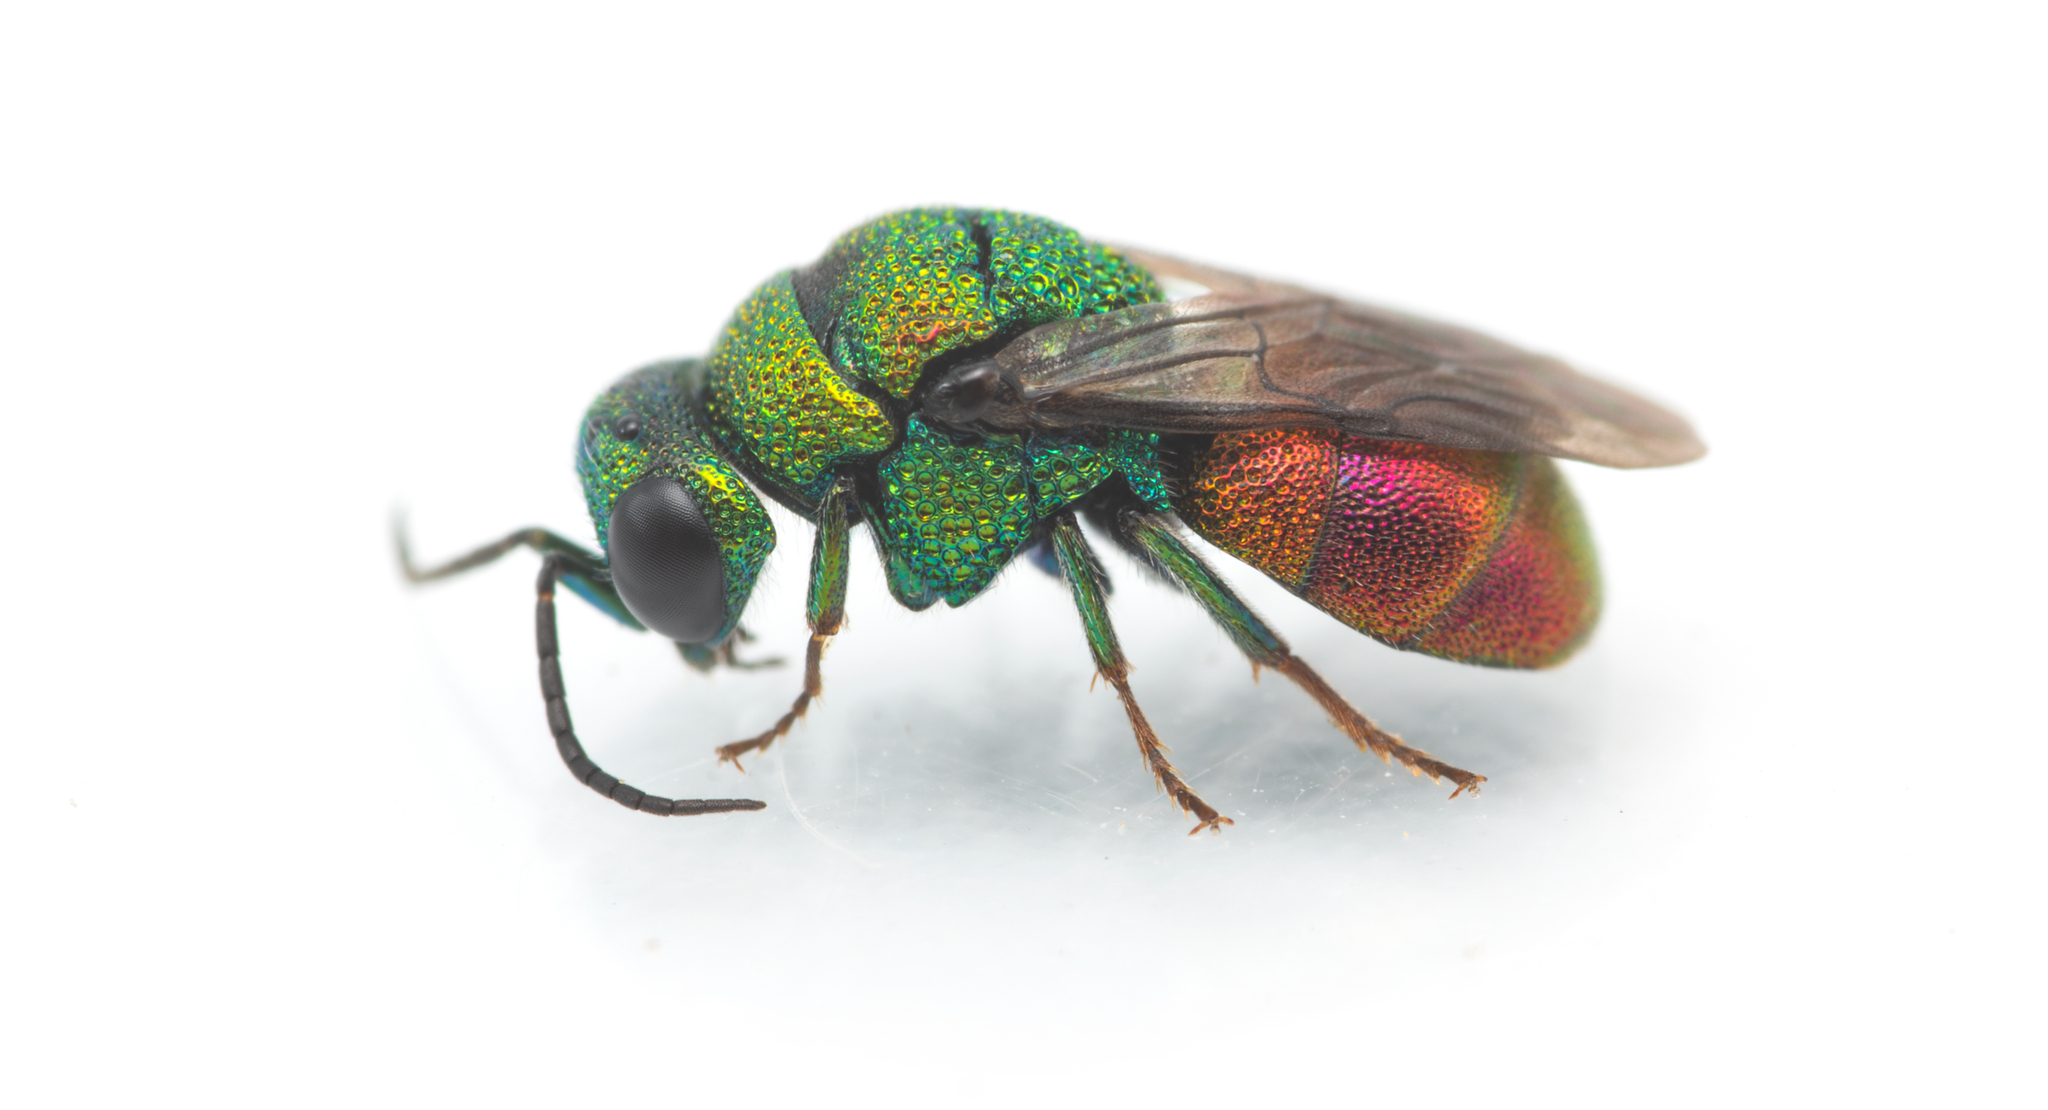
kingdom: Animalia
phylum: Arthropoda
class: Insecta
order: Hymenoptera
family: Chrysididae
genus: Holopyga
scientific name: Holopyga
